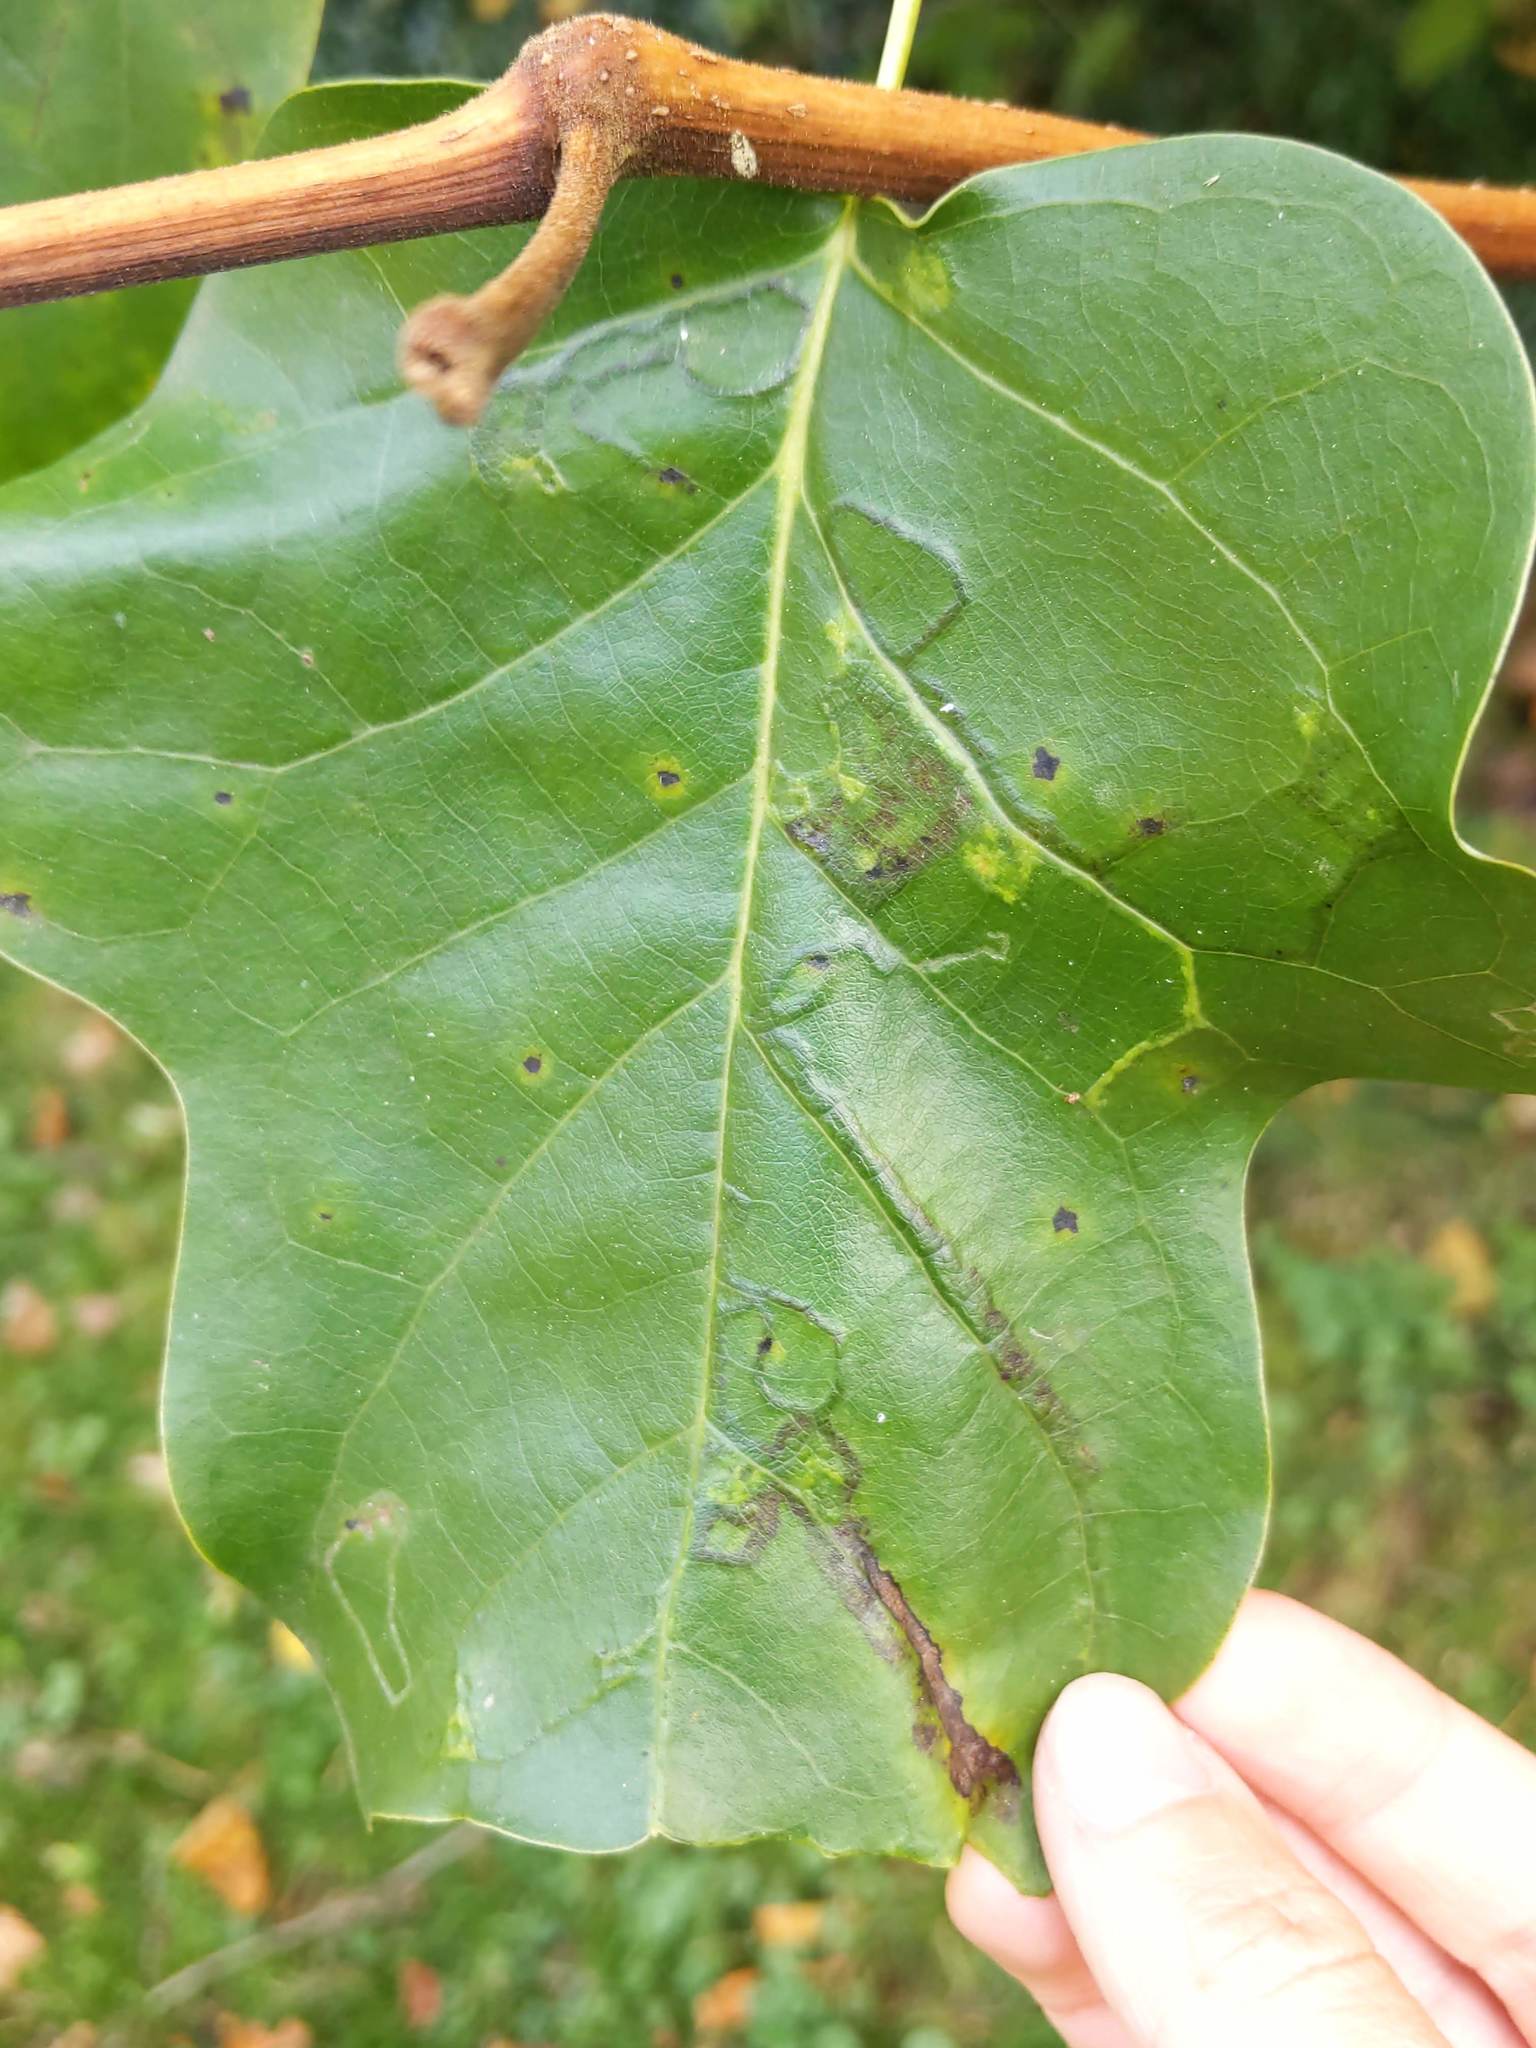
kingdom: Animalia
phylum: Arthropoda
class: Insecta
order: Lepidoptera
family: Gracillariidae
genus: Phyllocnistis
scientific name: Phyllocnistis liriodendronella
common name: Tulip tree leaf miner
